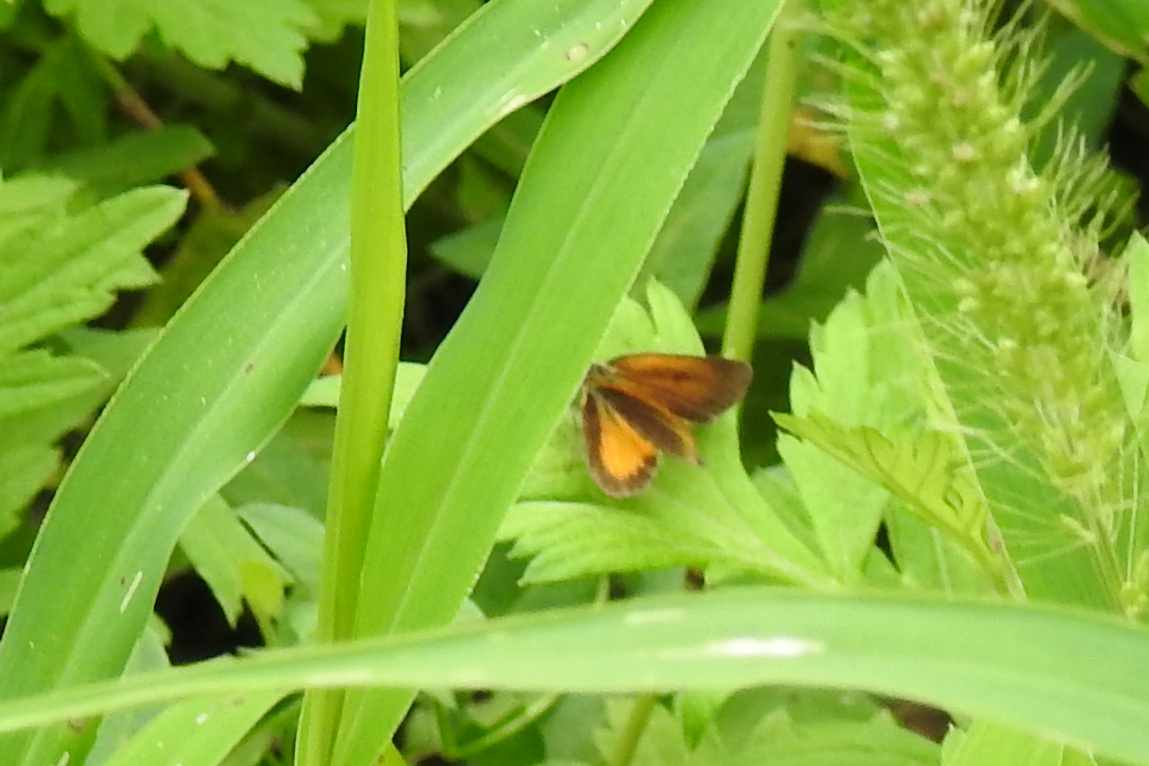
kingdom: Animalia
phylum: Arthropoda
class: Insecta
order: Lepidoptera
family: Hesperiidae
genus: Ancyloxypha
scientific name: Ancyloxypha numitor
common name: Least skipper
